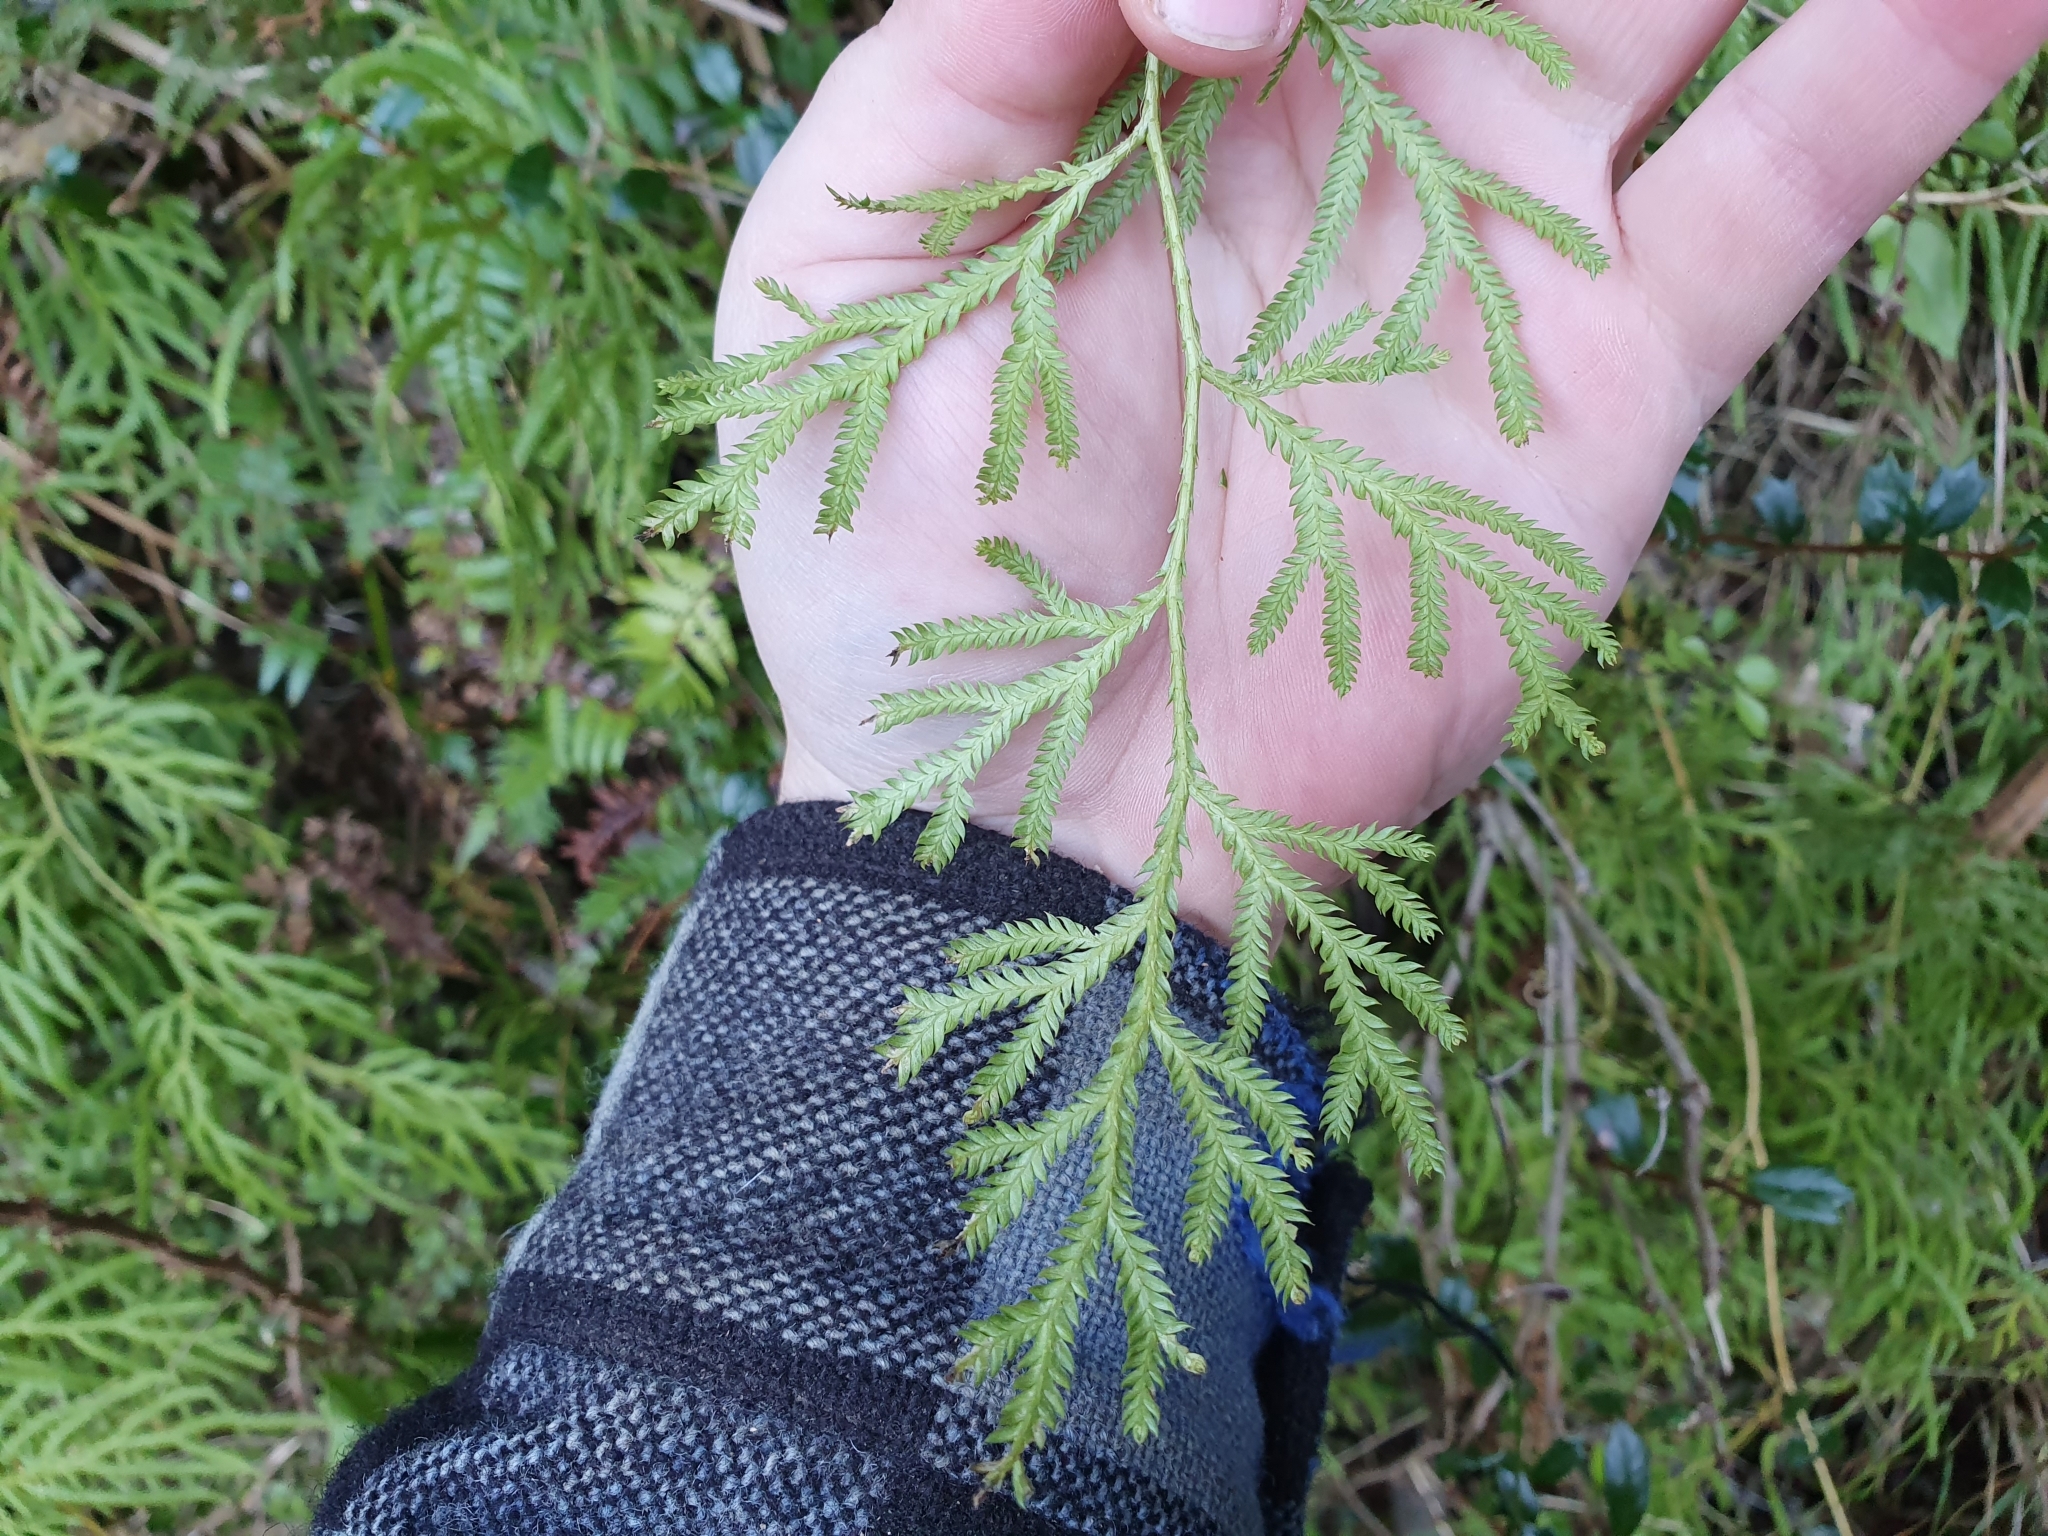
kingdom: Plantae
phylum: Tracheophyta
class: Lycopodiopsida
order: Lycopodiales
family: Lycopodiaceae
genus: Lycopodium
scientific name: Lycopodium volubile
